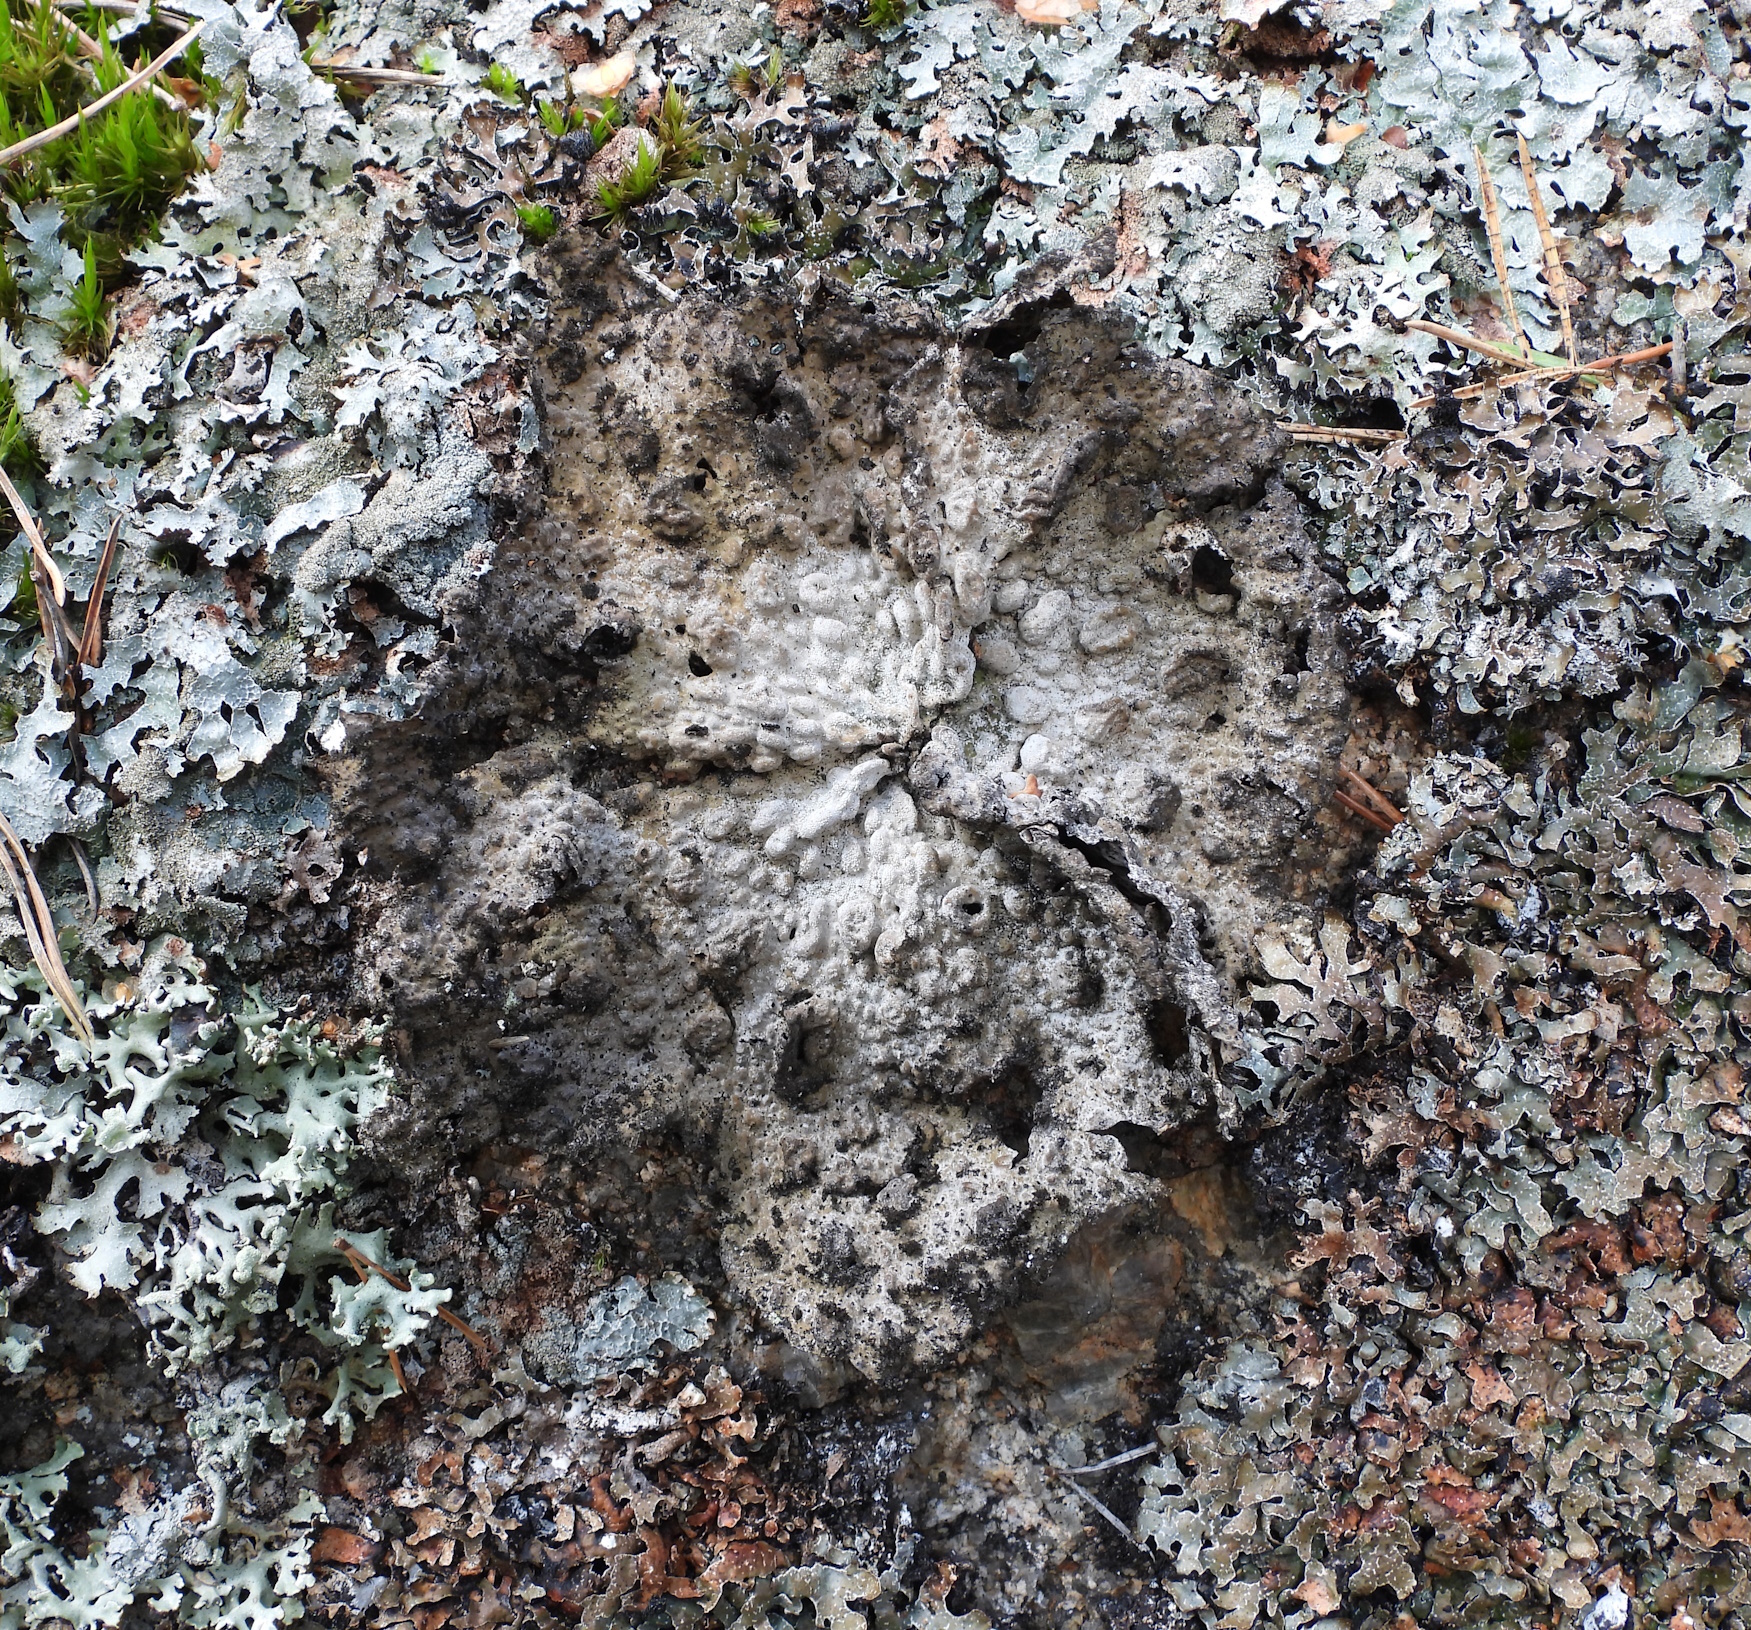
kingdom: Fungi
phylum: Ascomycota
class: Lecanoromycetes
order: Umbilicariales
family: Umbilicariaceae
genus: Lasallia
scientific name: Lasallia pustulata
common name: Blistered toadskin lichen
